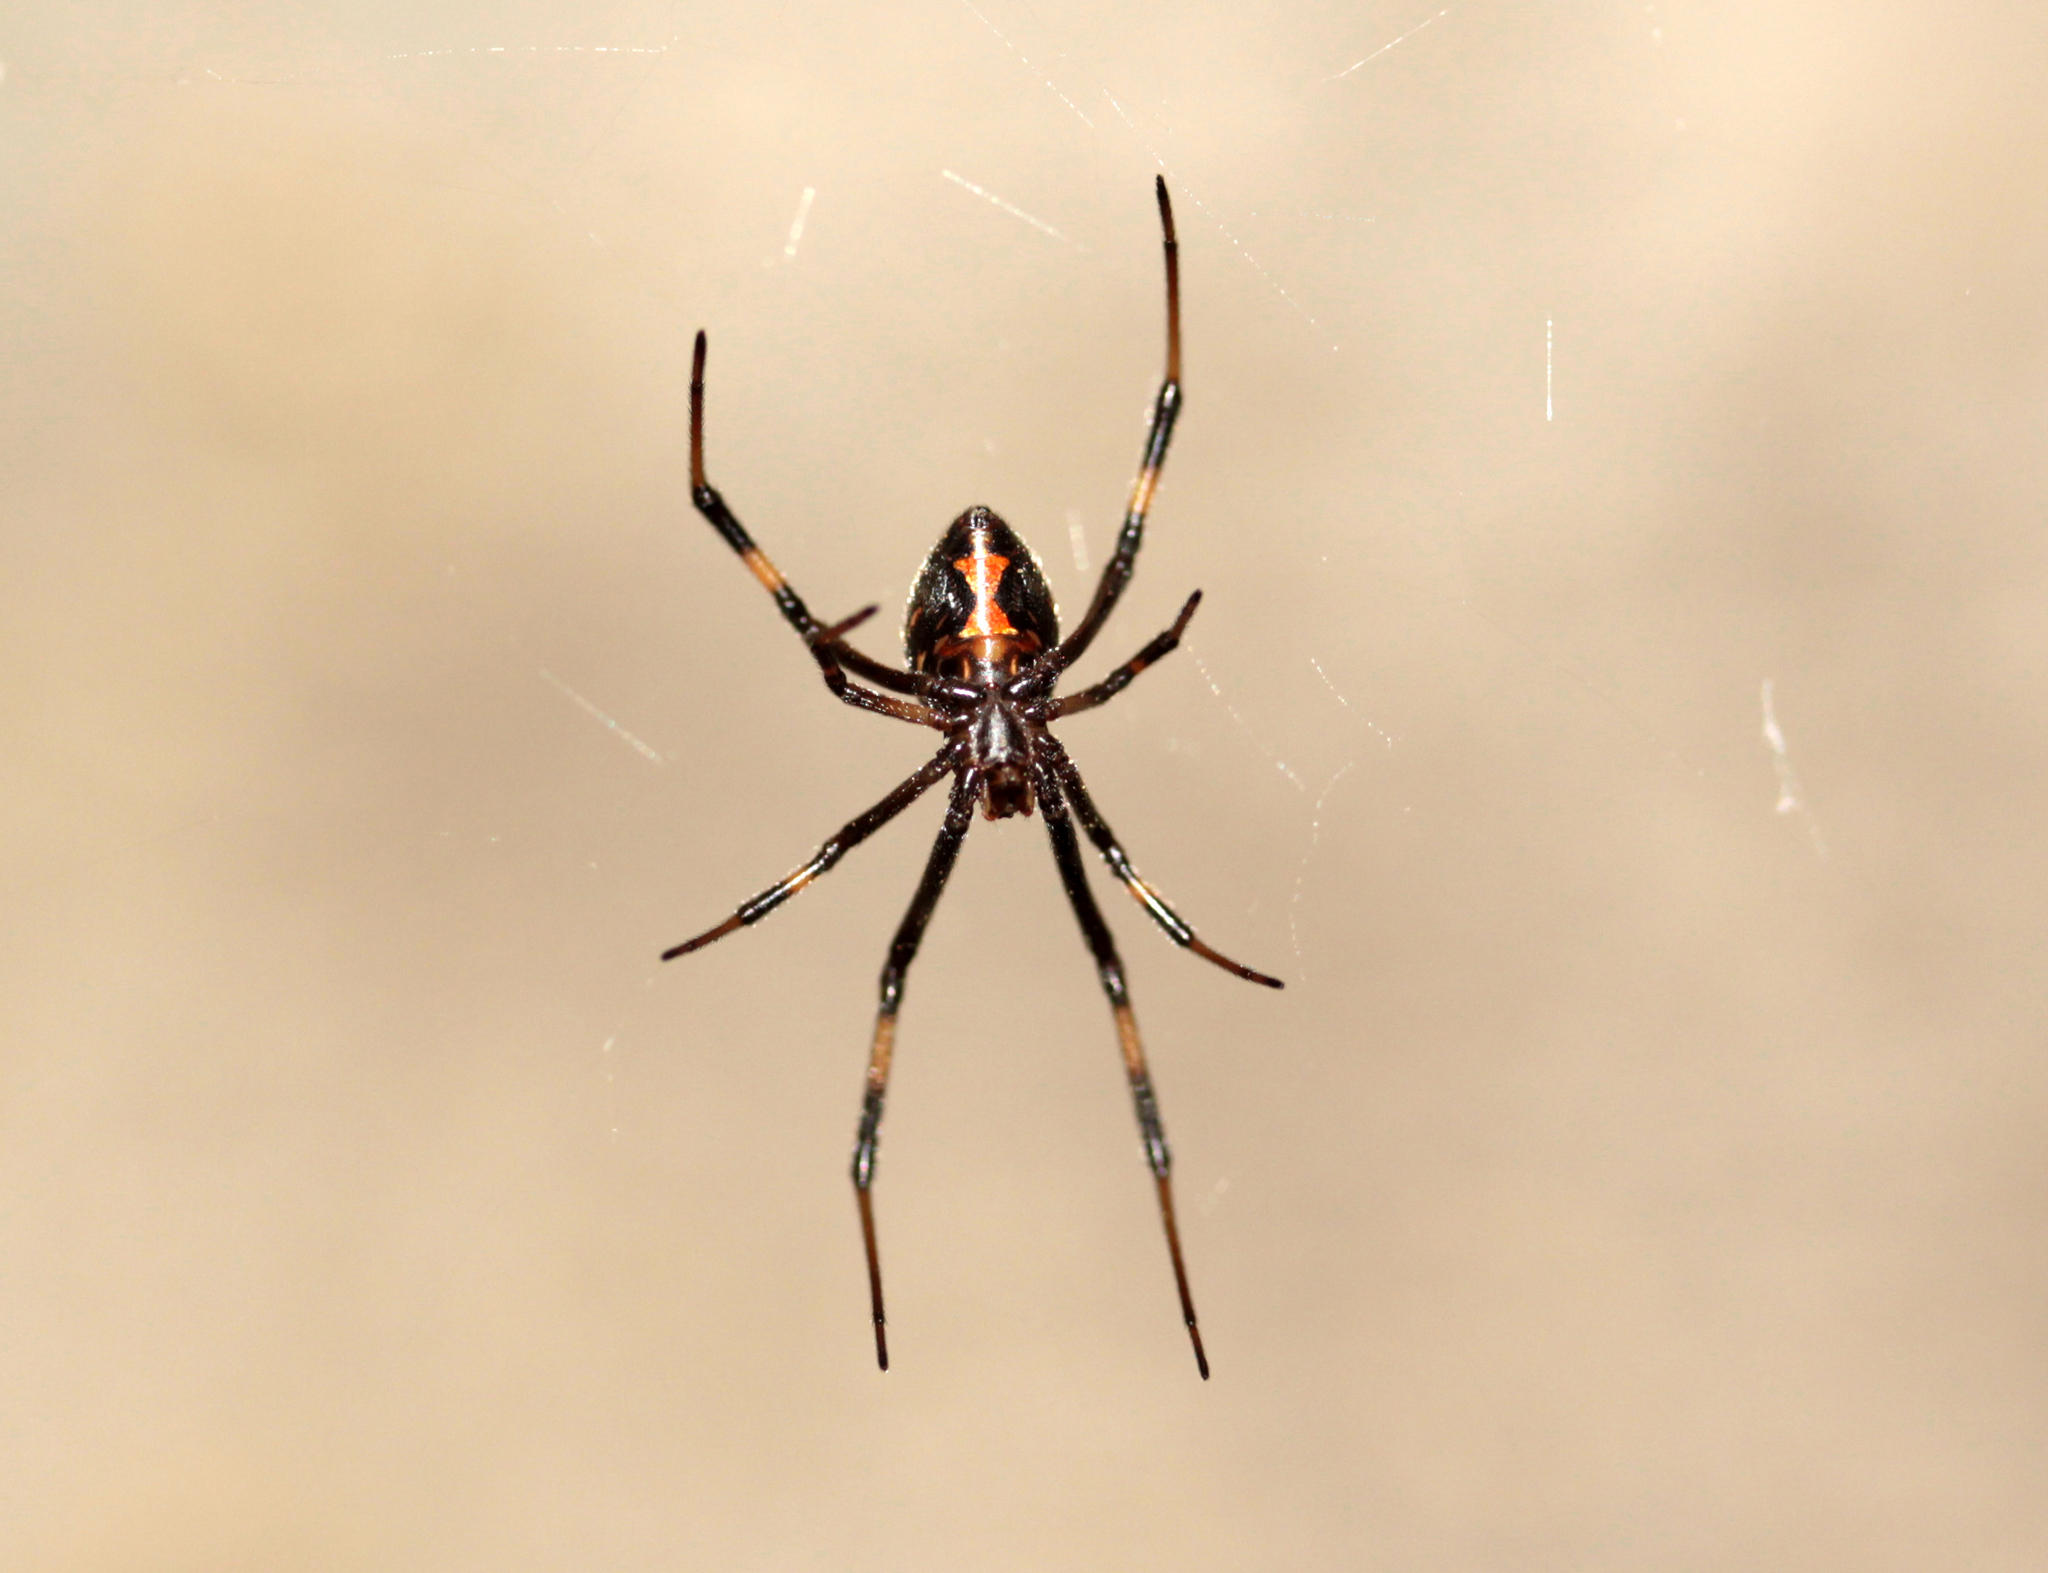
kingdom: Animalia
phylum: Arthropoda
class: Arachnida
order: Araneae
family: Theridiidae
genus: Latrodectus
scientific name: Latrodectus hesperus
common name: Western black widow
